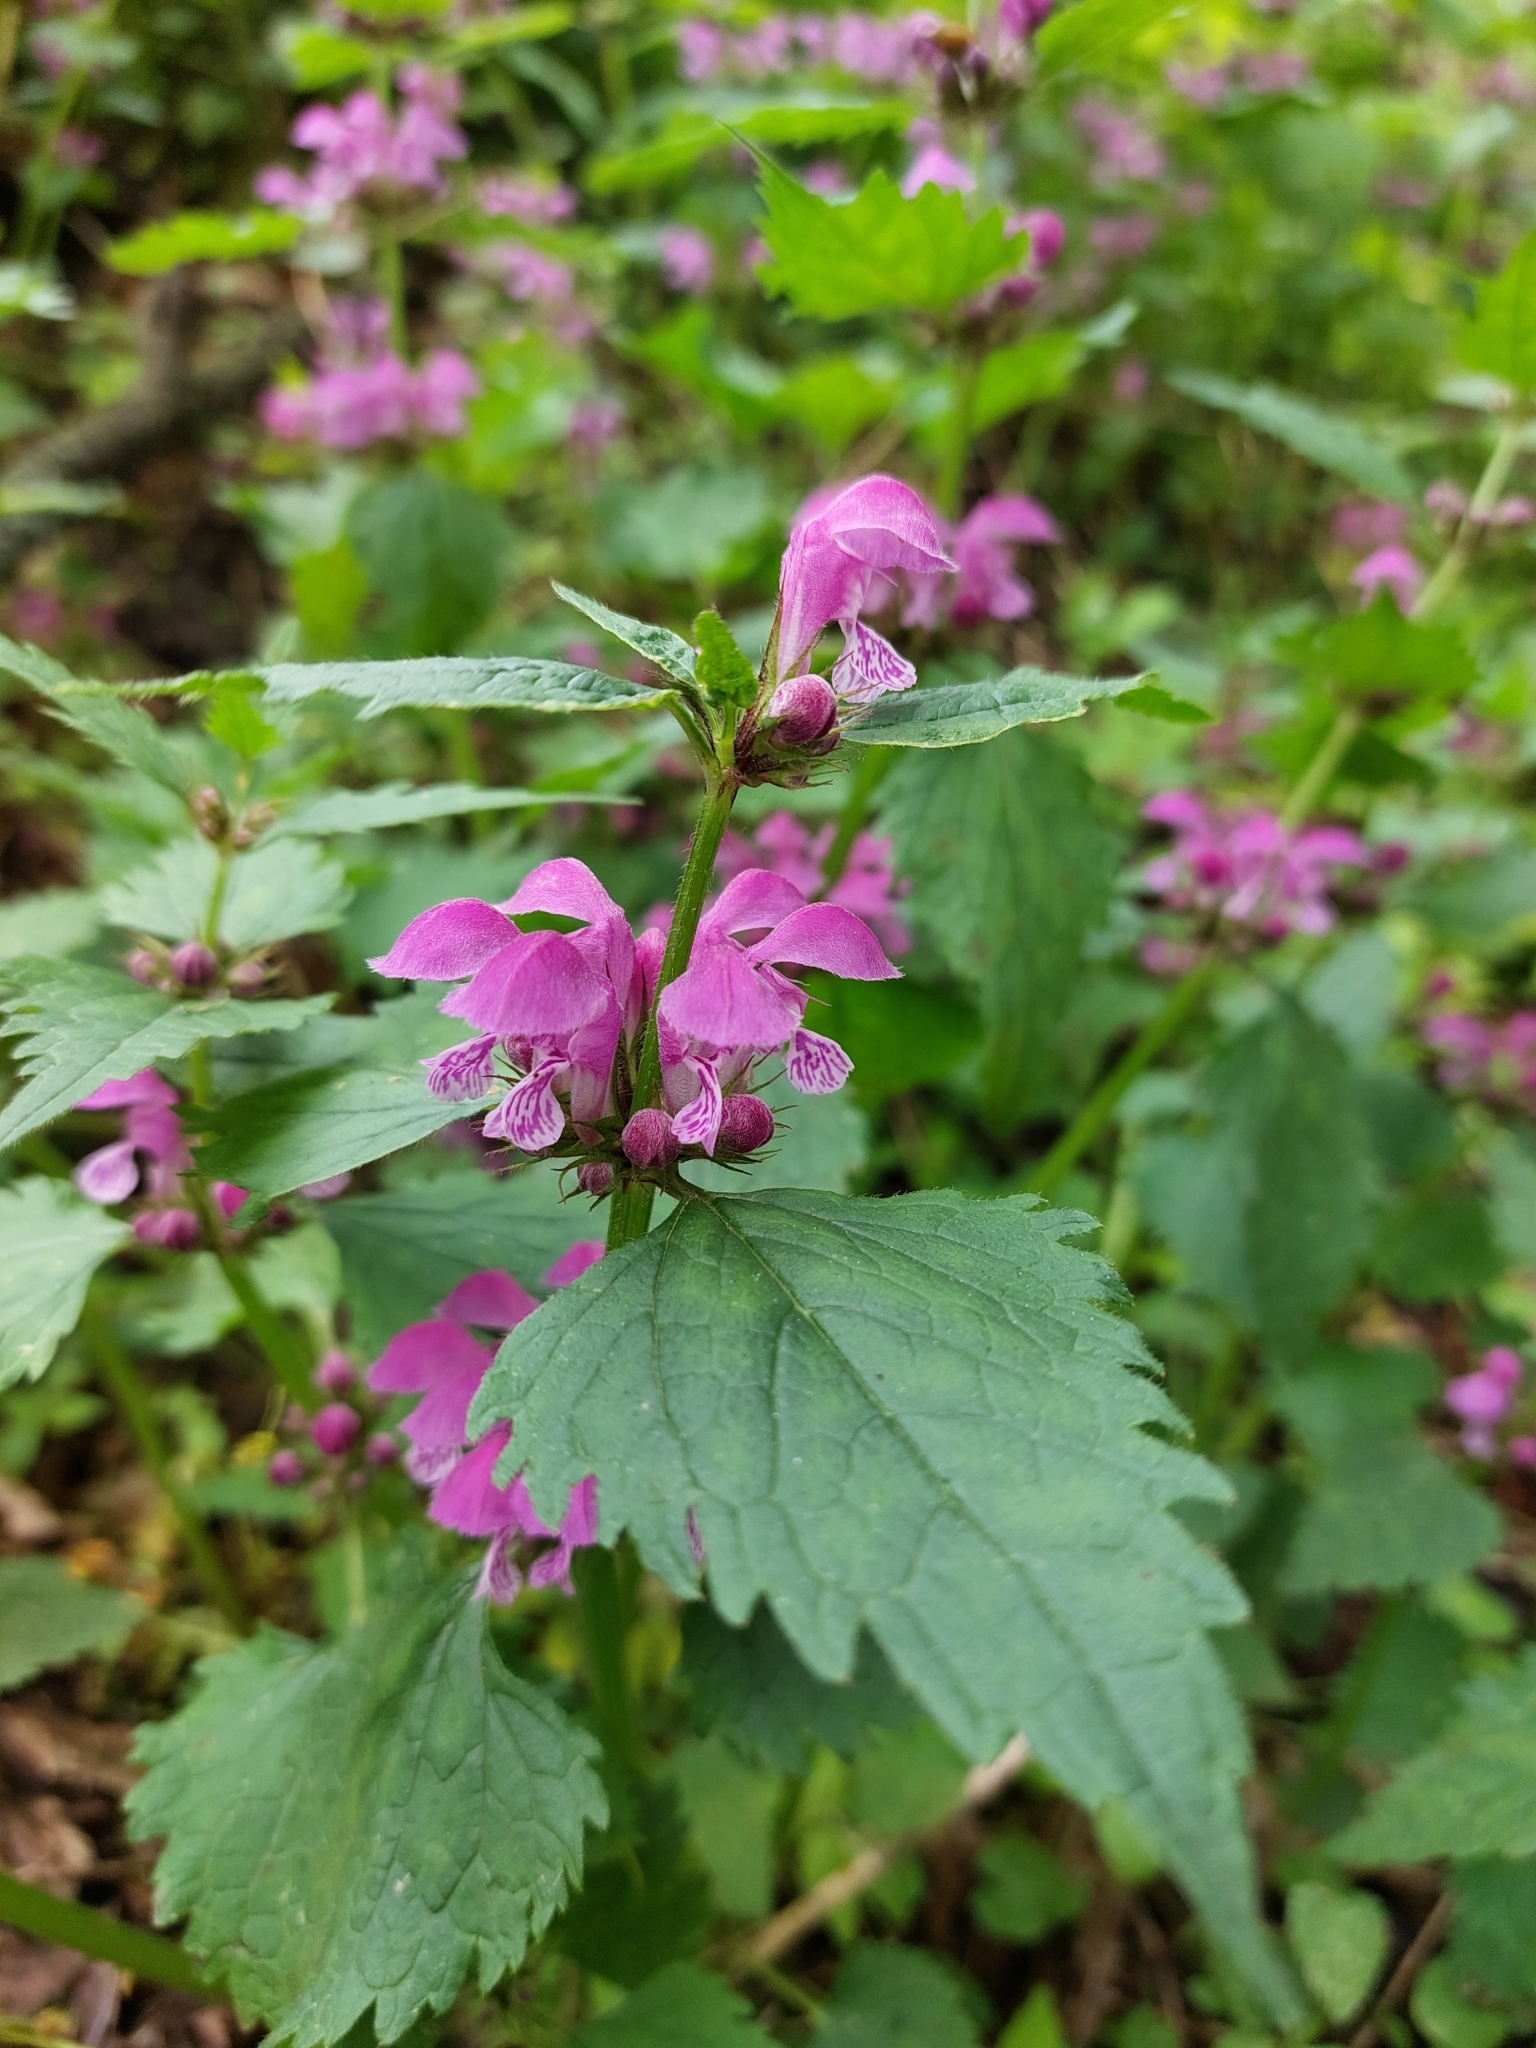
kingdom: Plantae
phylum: Tracheophyta
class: Magnoliopsida
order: Lamiales
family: Lamiaceae
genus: Lamium
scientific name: Lamium maculatum
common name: Spotted dead-nettle
